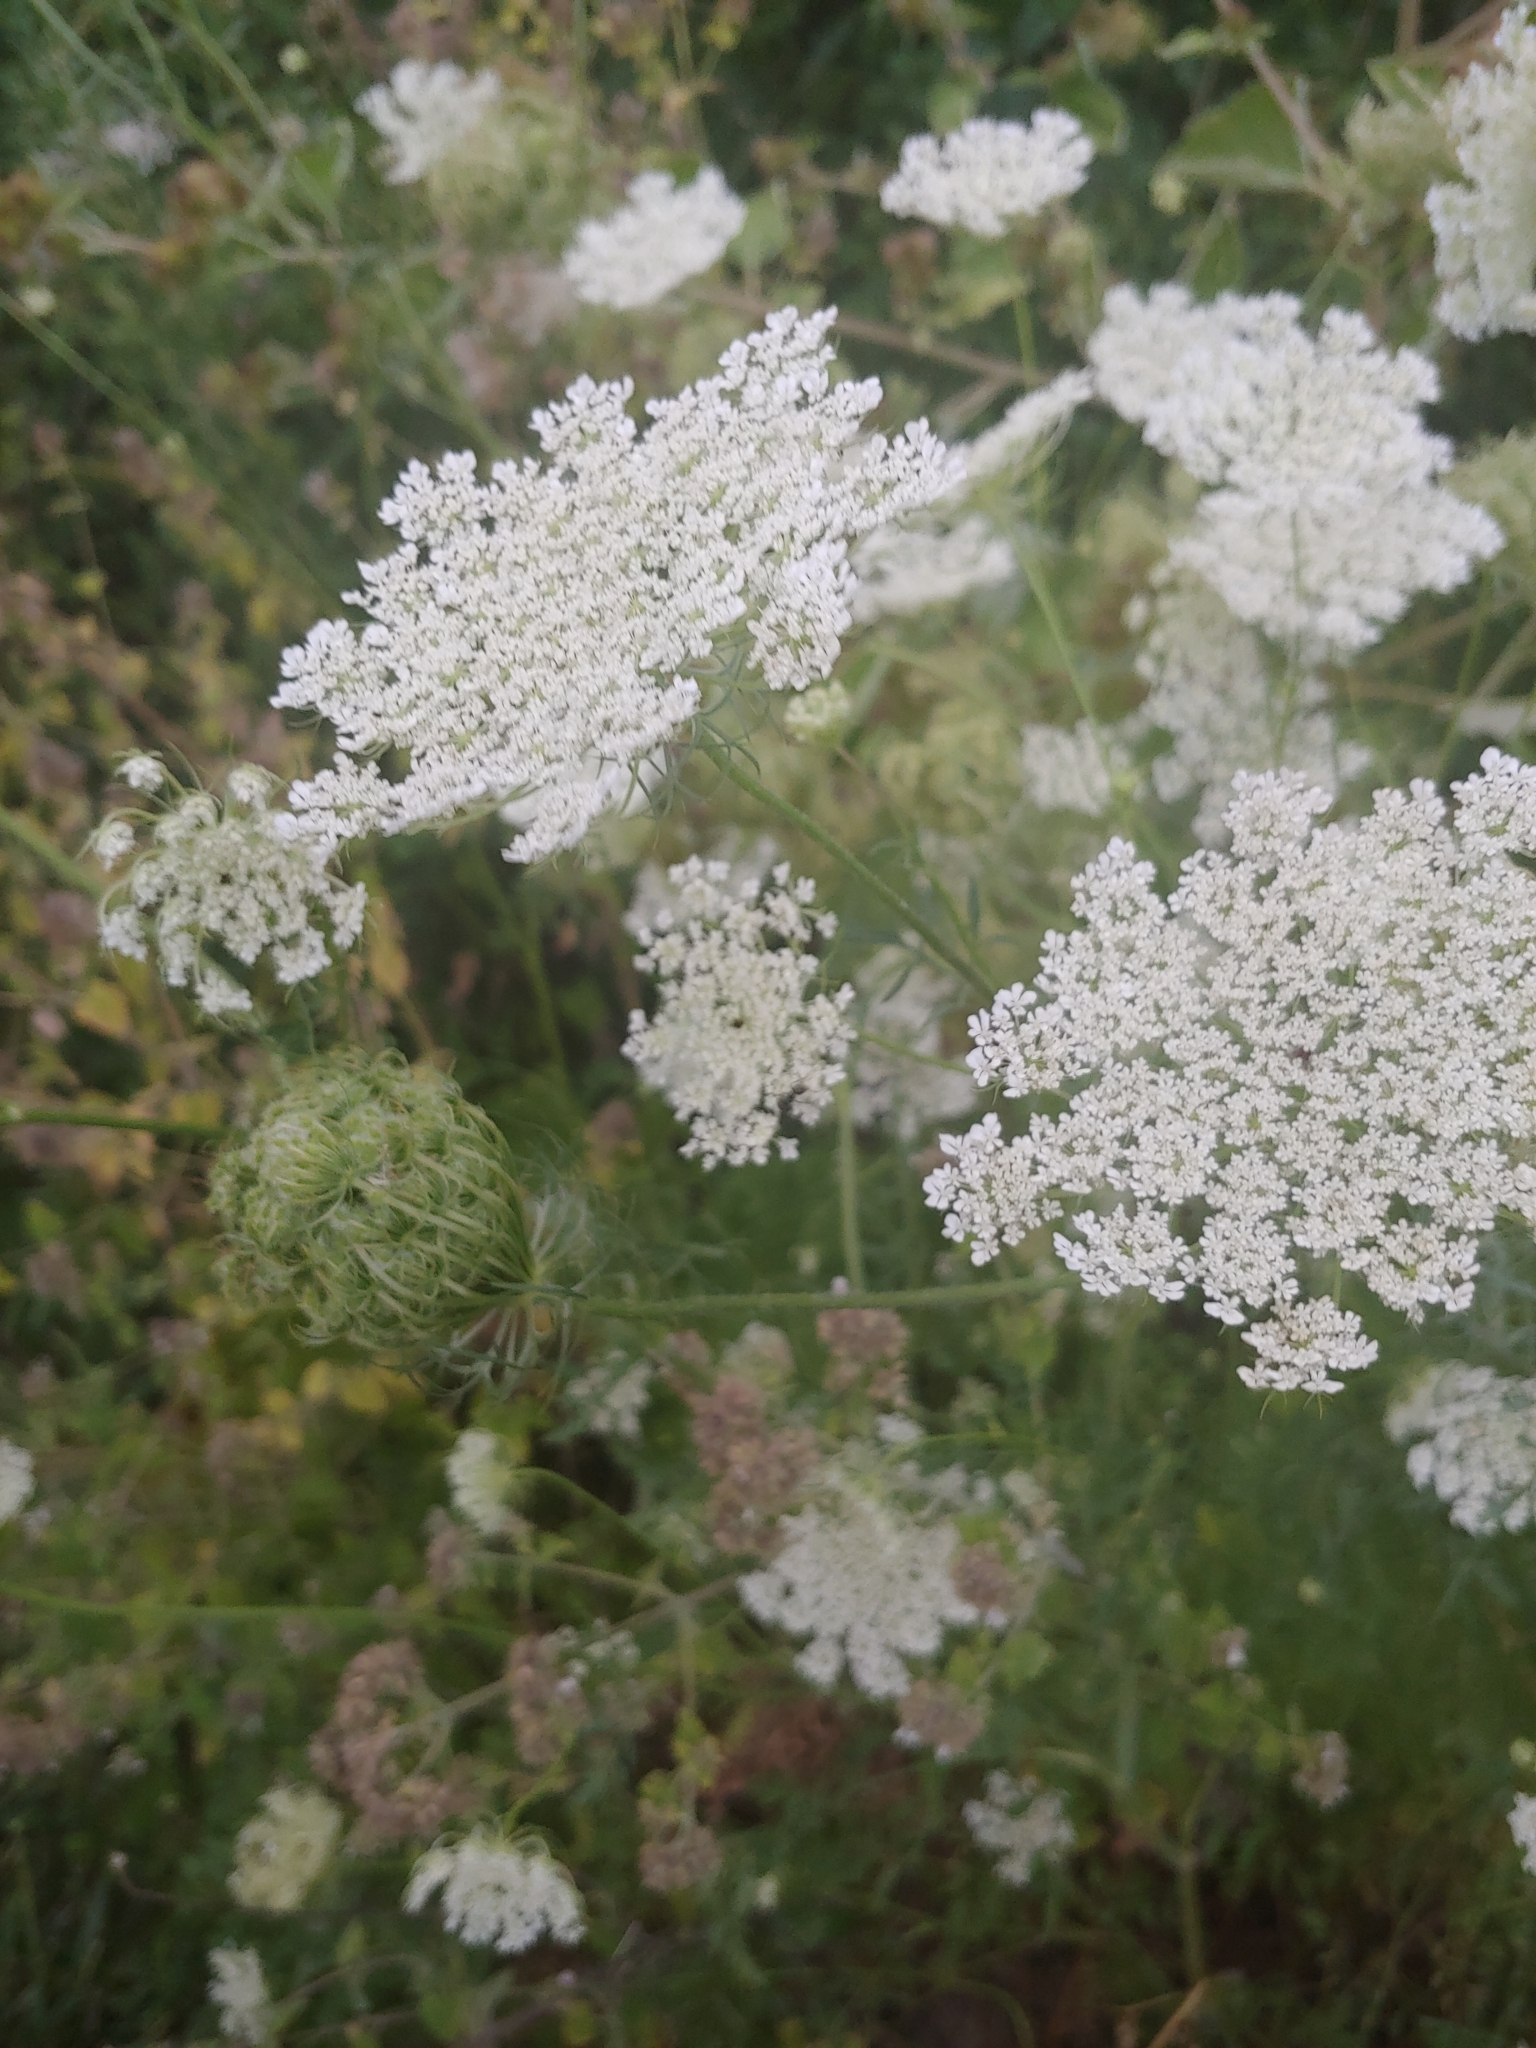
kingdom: Plantae
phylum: Tracheophyta
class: Magnoliopsida
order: Apiales
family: Apiaceae
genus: Daucus
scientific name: Daucus carota
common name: Wild carrot
